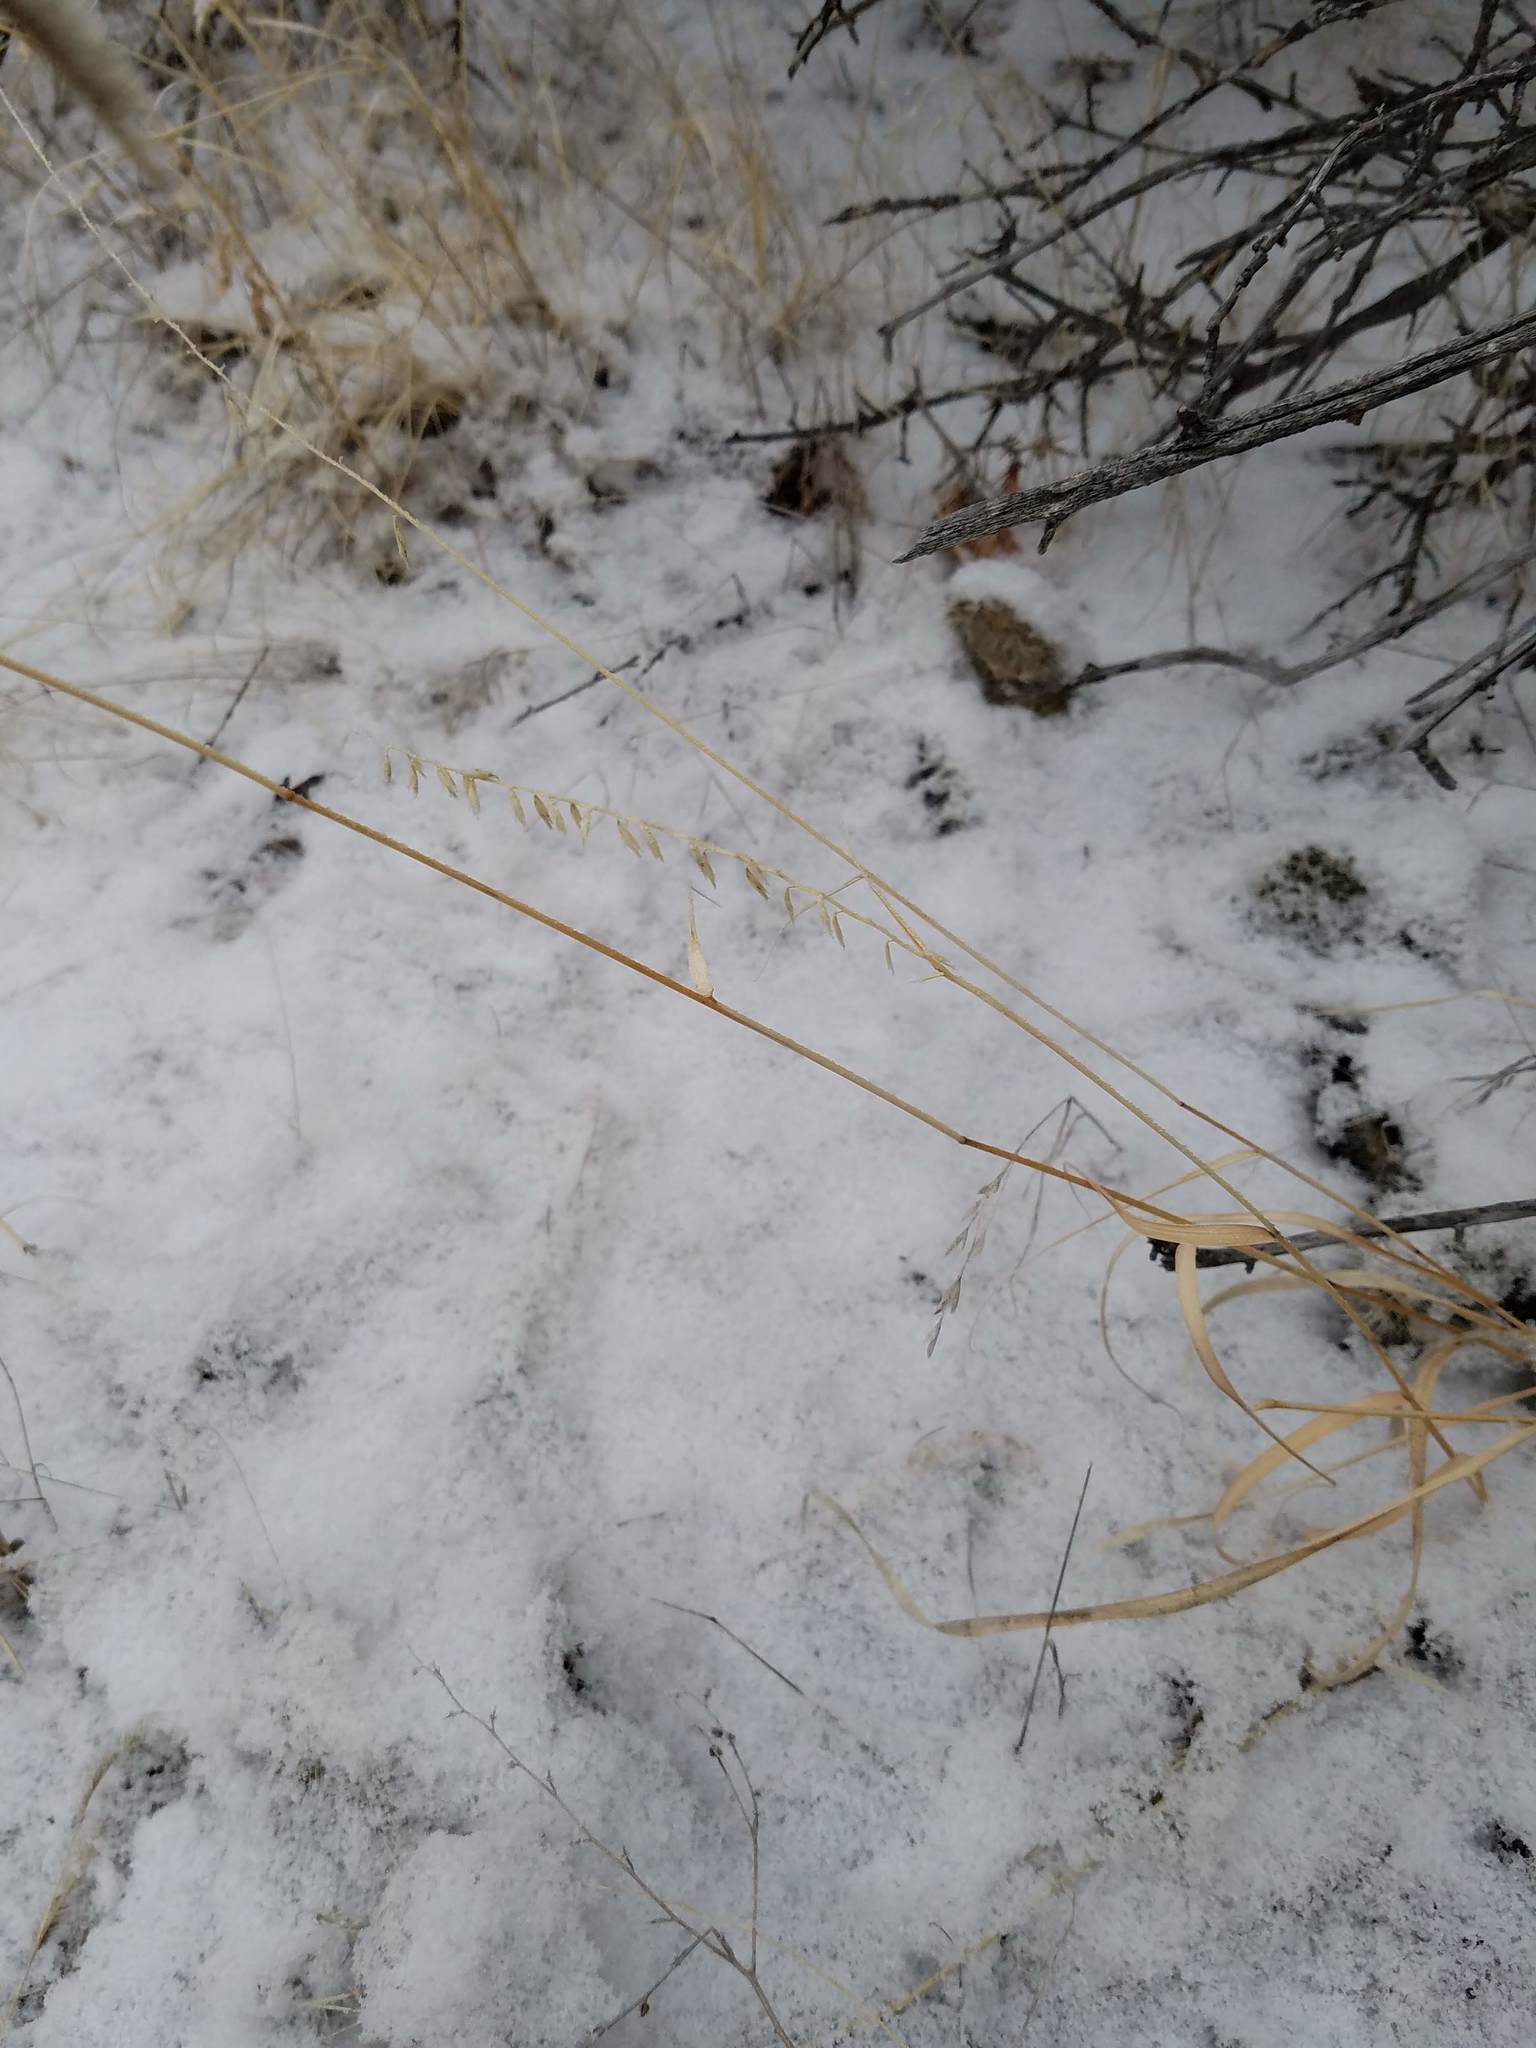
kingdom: Plantae
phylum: Tracheophyta
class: Liliopsida
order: Poales
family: Poaceae
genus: Bouteloua
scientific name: Bouteloua curtipendula
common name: Side-oats grama
